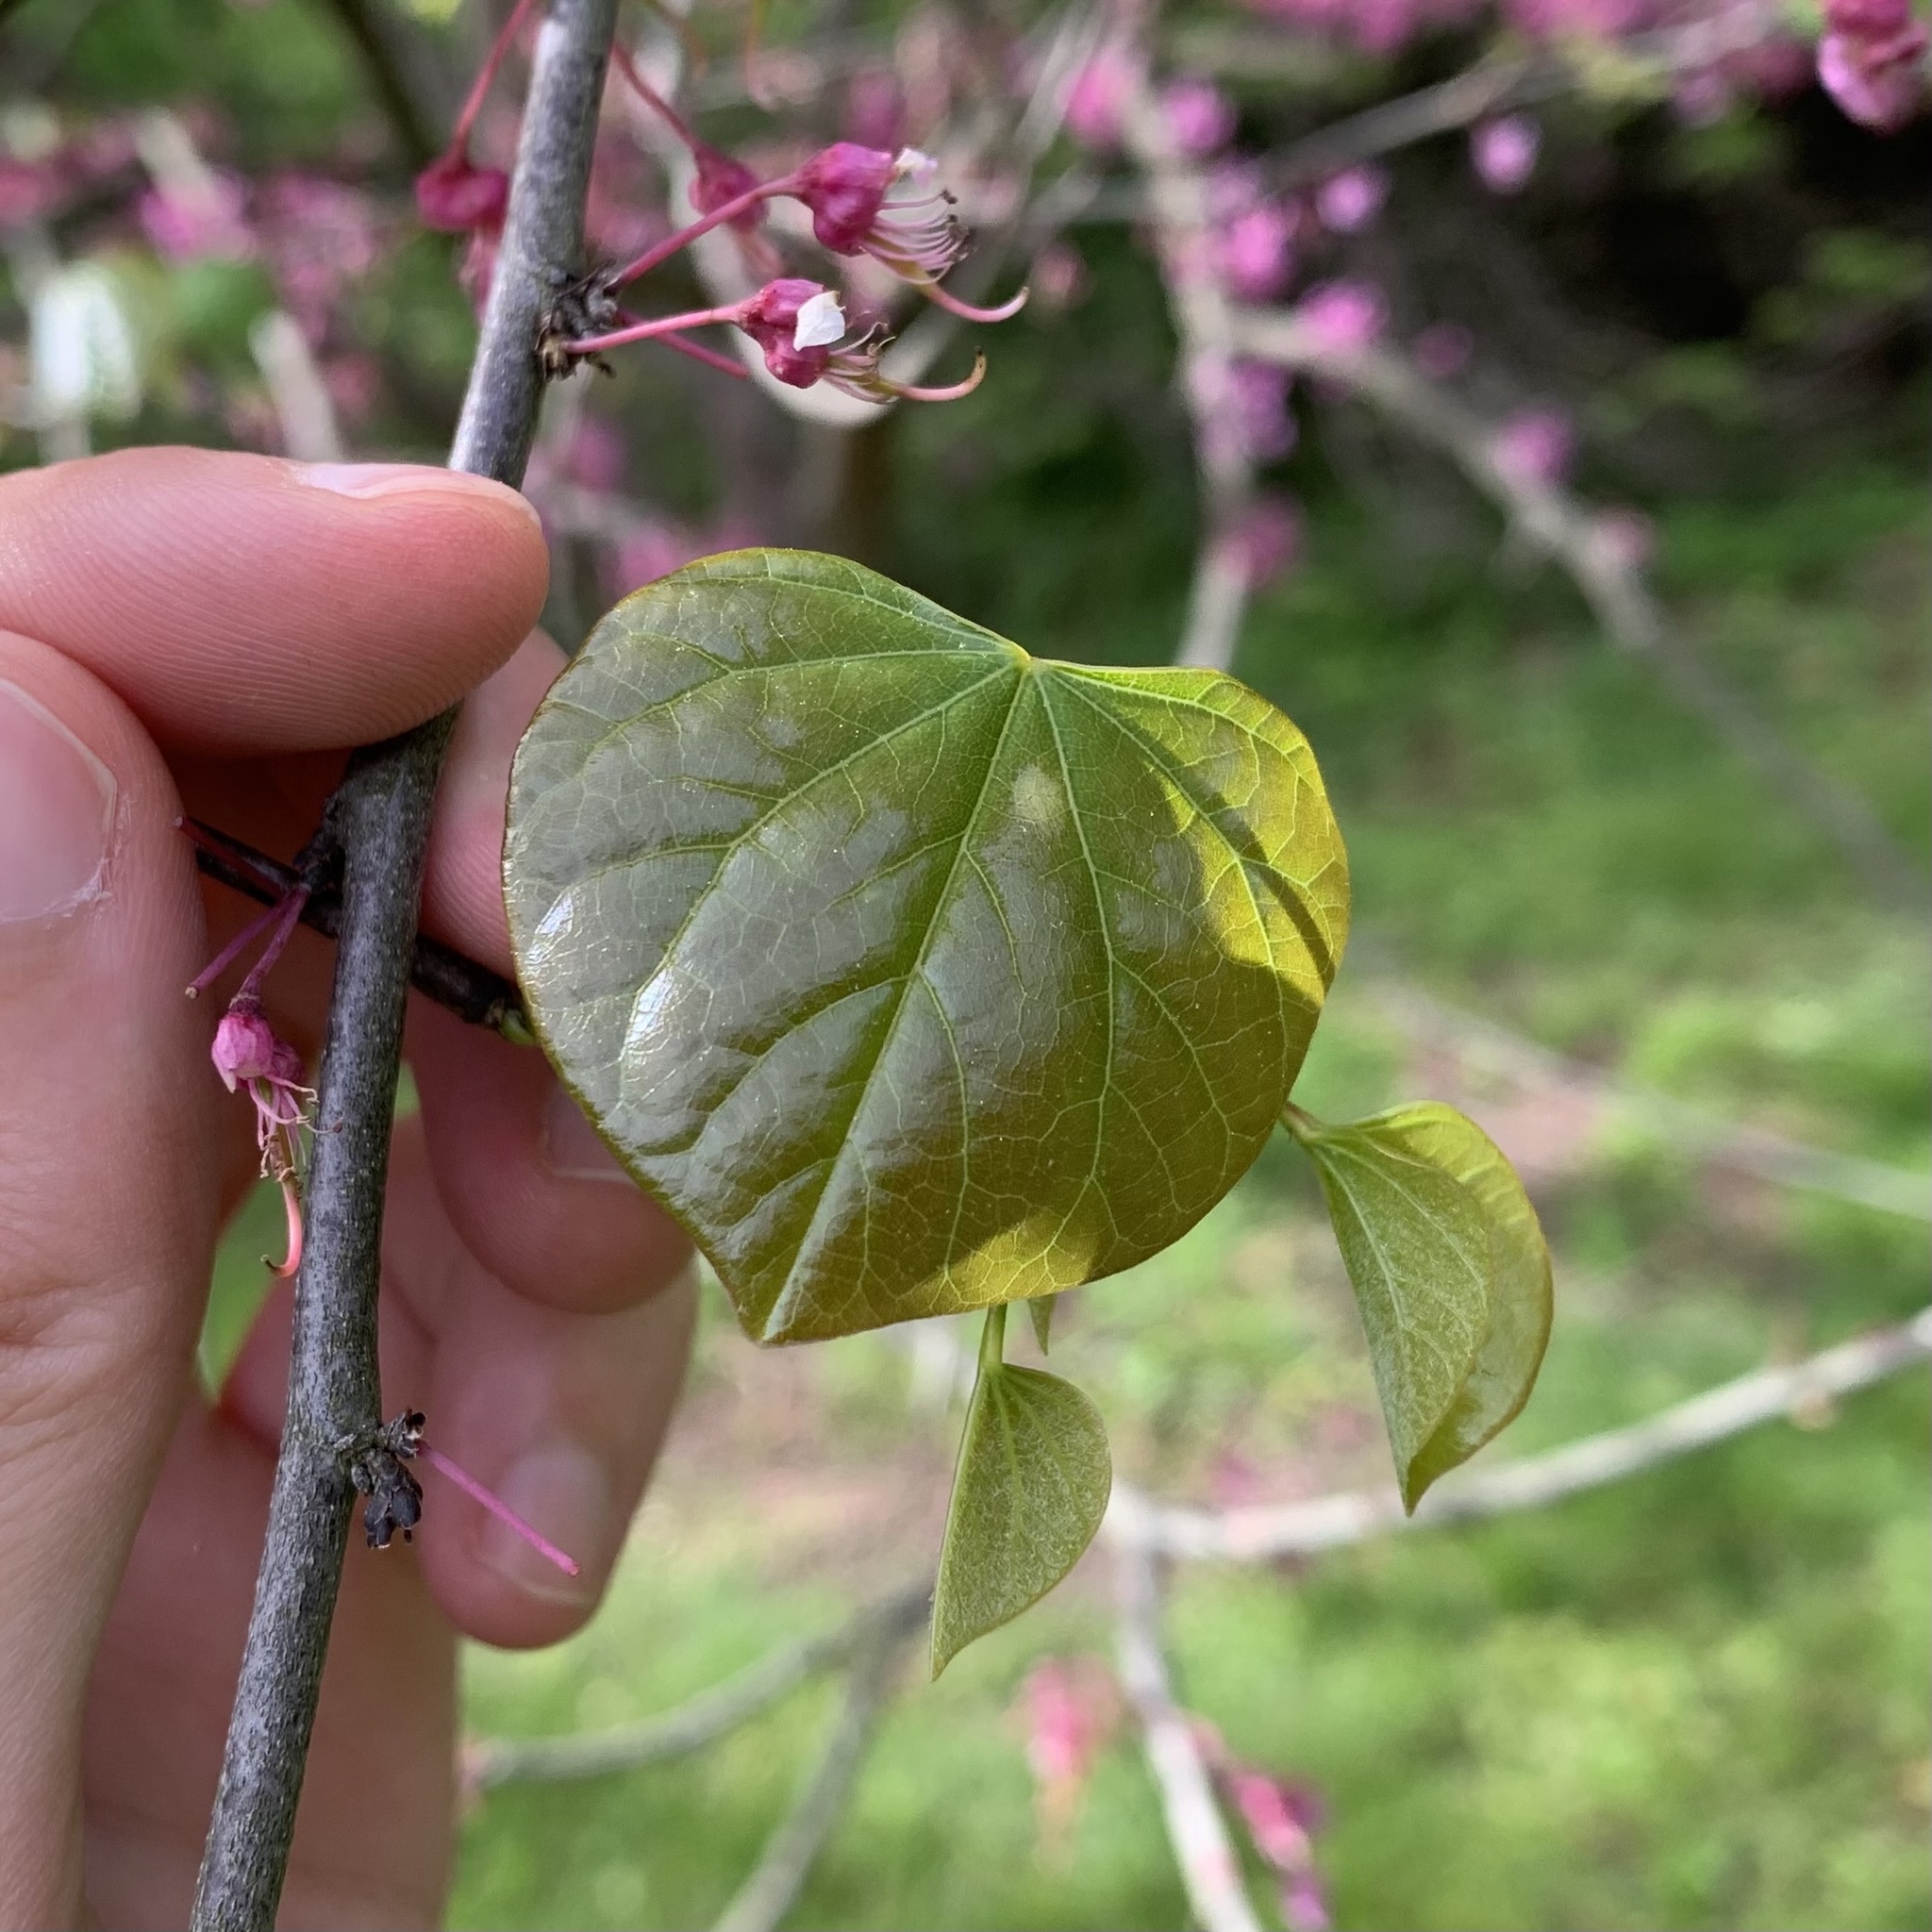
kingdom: Plantae
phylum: Tracheophyta
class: Magnoliopsida
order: Fabales
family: Fabaceae
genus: Cercis
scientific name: Cercis canadensis
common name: Eastern redbud
